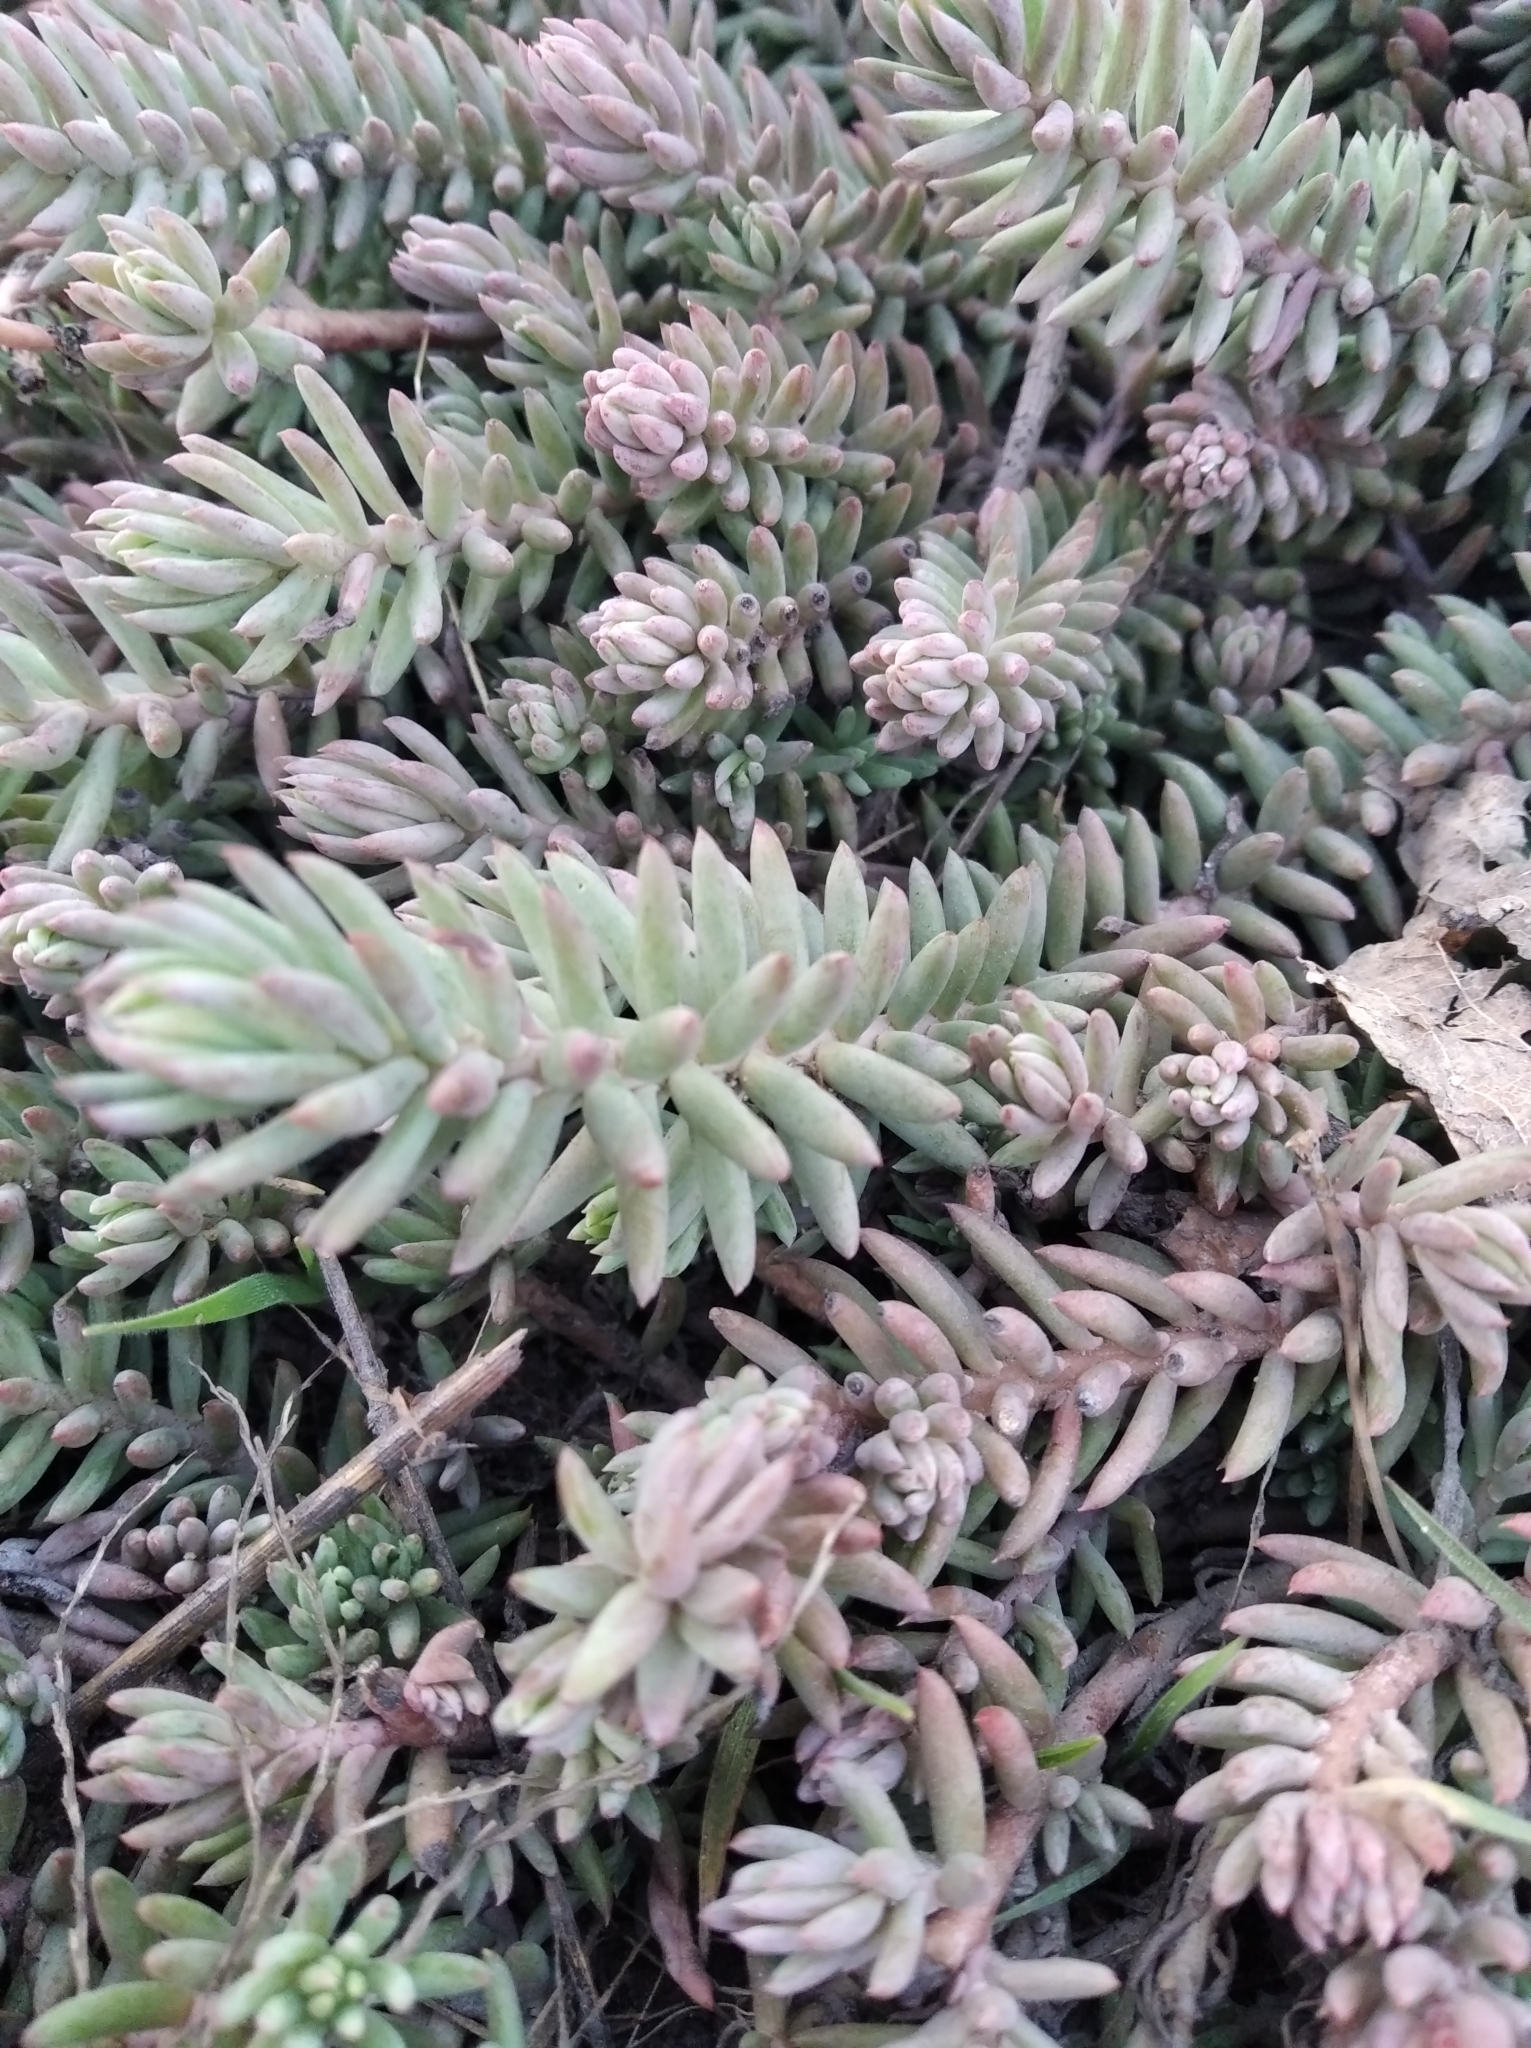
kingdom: Plantae
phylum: Tracheophyta
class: Magnoliopsida
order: Saxifragales
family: Crassulaceae
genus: Petrosedum
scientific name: Petrosedum rupestre
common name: Jenny's stonecrop
